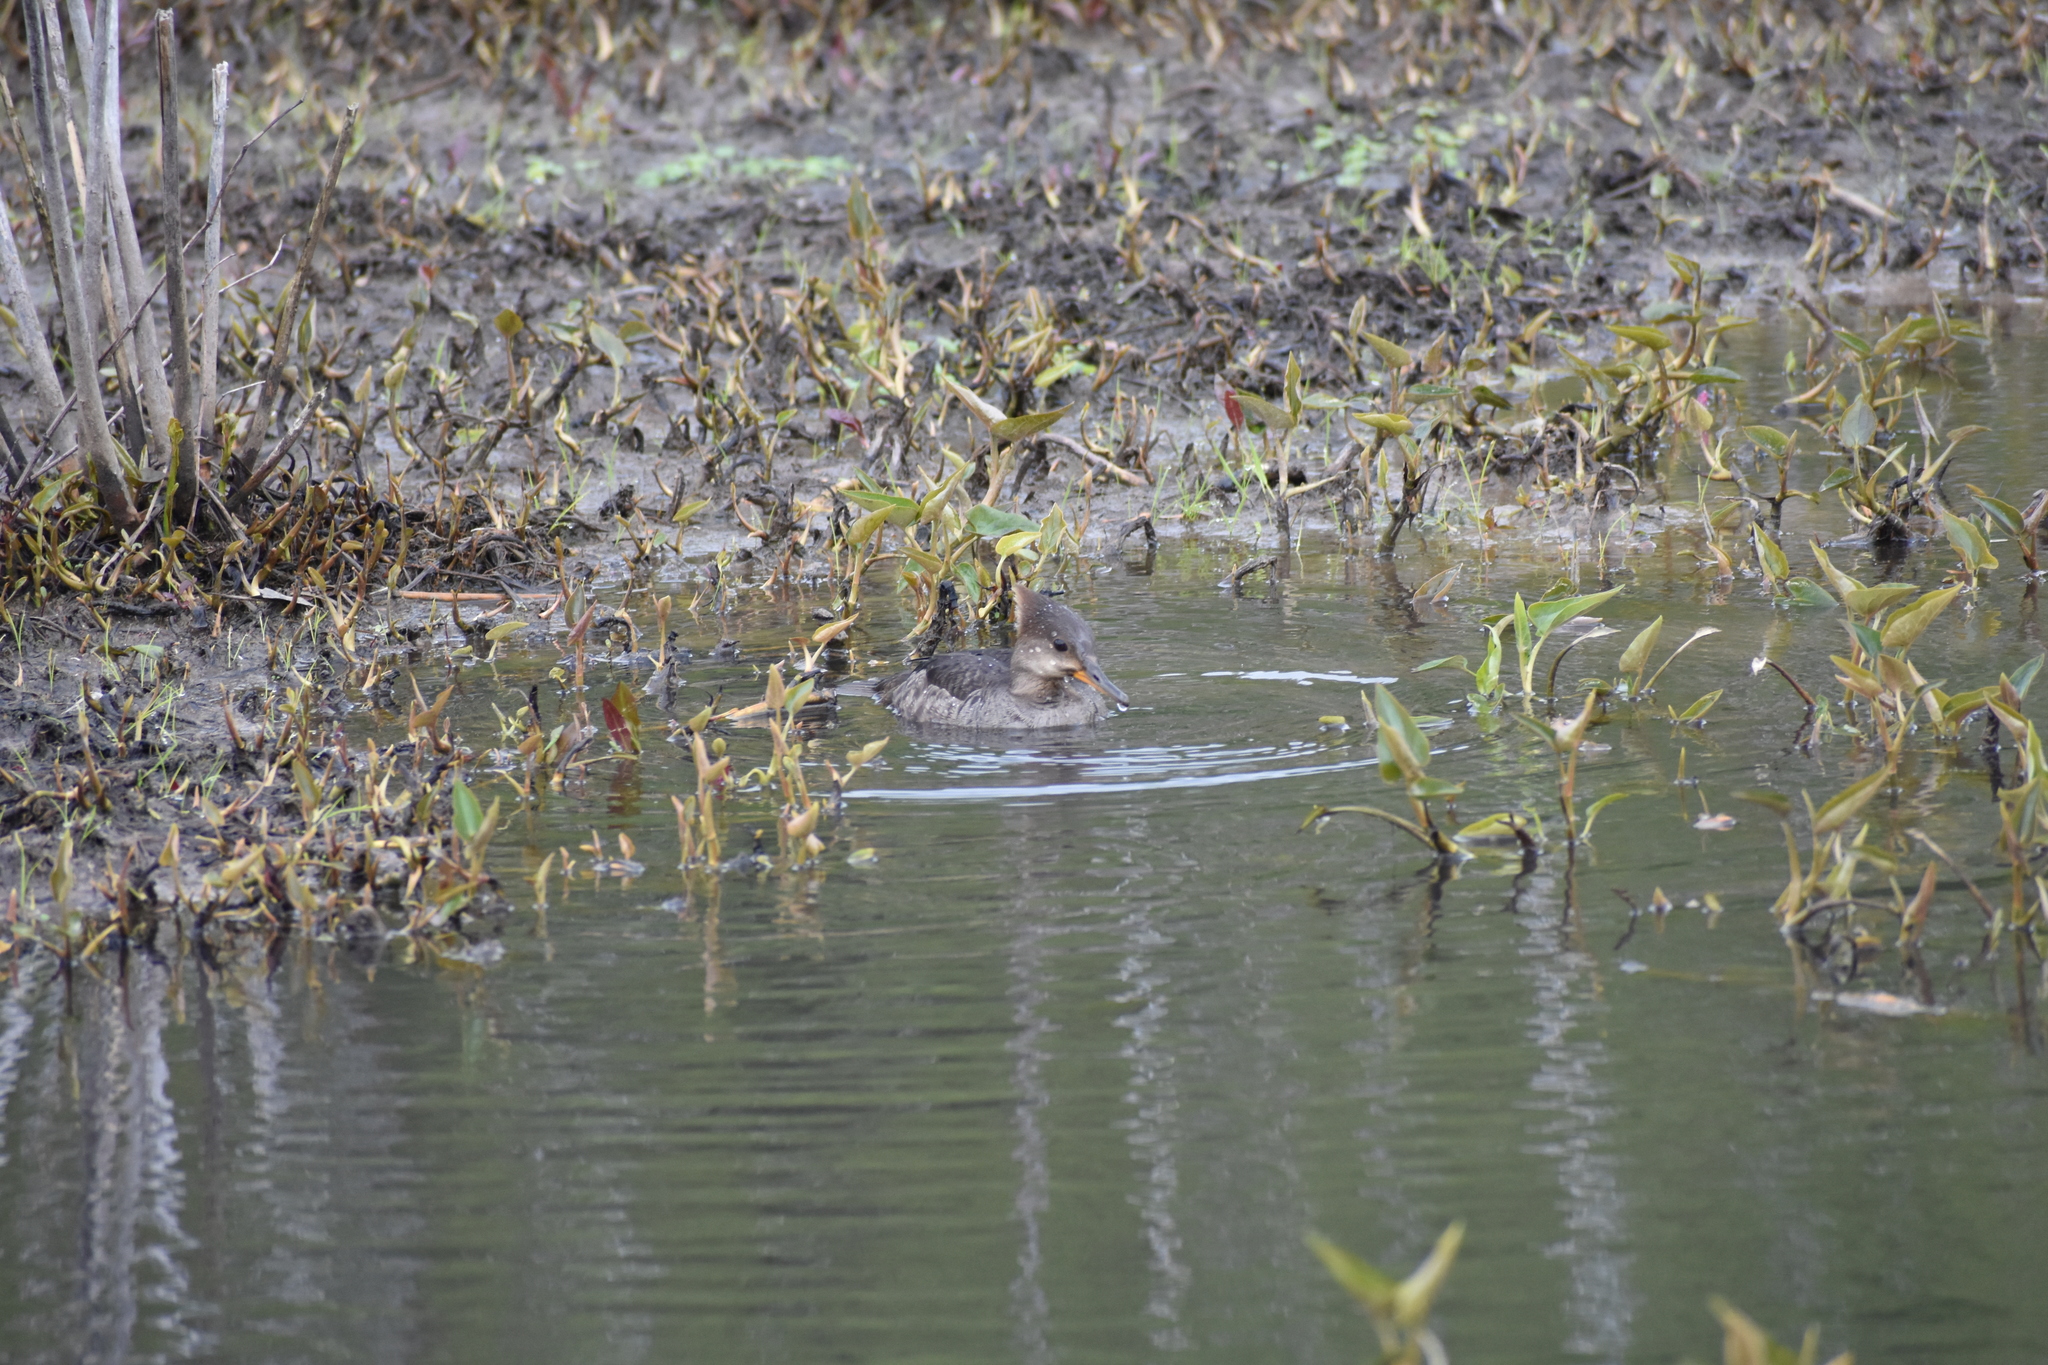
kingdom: Animalia
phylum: Chordata
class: Aves
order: Anseriformes
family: Anatidae
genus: Lophodytes
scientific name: Lophodytes cucullatus
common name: Hooded merganser
